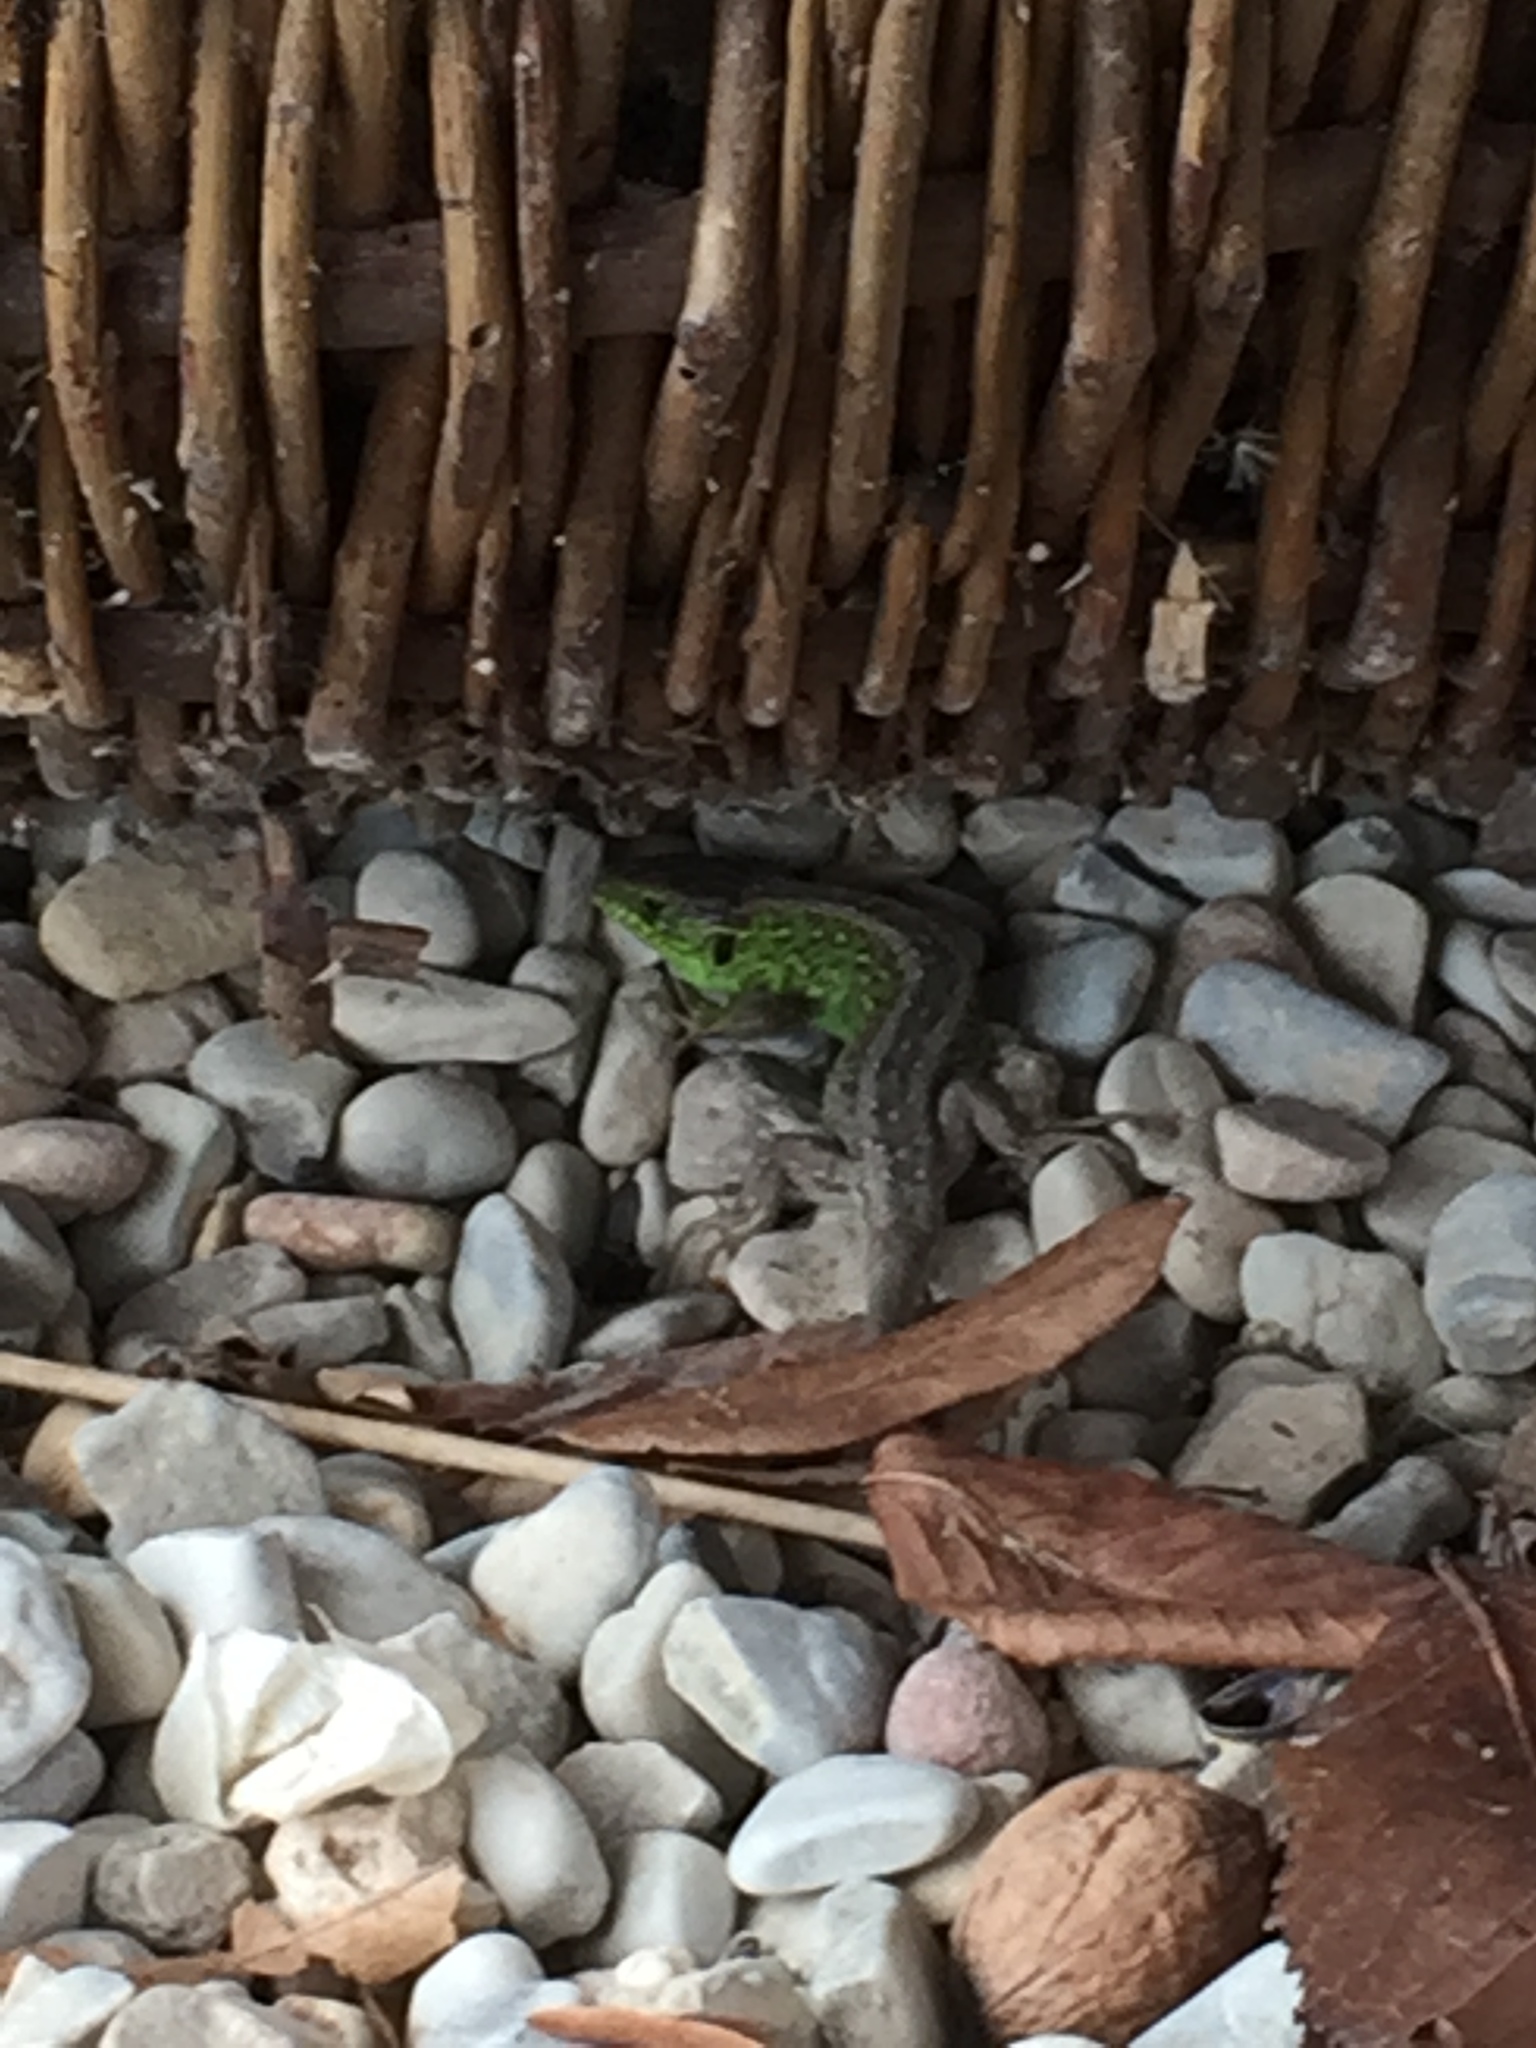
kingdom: Animalia
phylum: Chordata
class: Squamata
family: Lacertidae
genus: Lacerta
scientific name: Lacerta agilis
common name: Sand lizard
